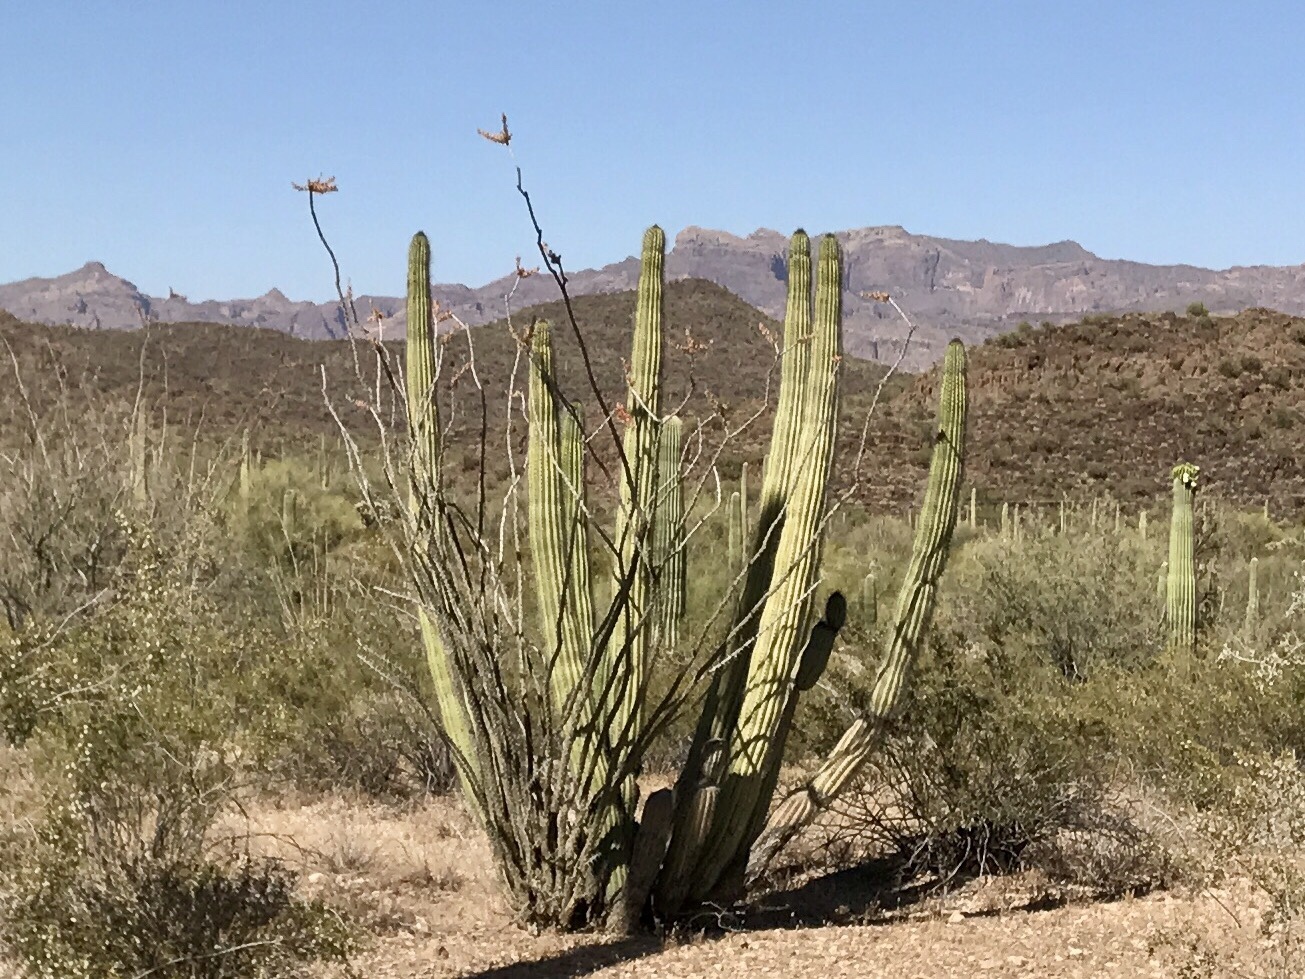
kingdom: Plantae
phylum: Tracheophyta
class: Magnoliopsida
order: Ericales
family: Fouquieriaceae
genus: Fouquieria
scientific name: Fouquieria splendens
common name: Vine-cactus
